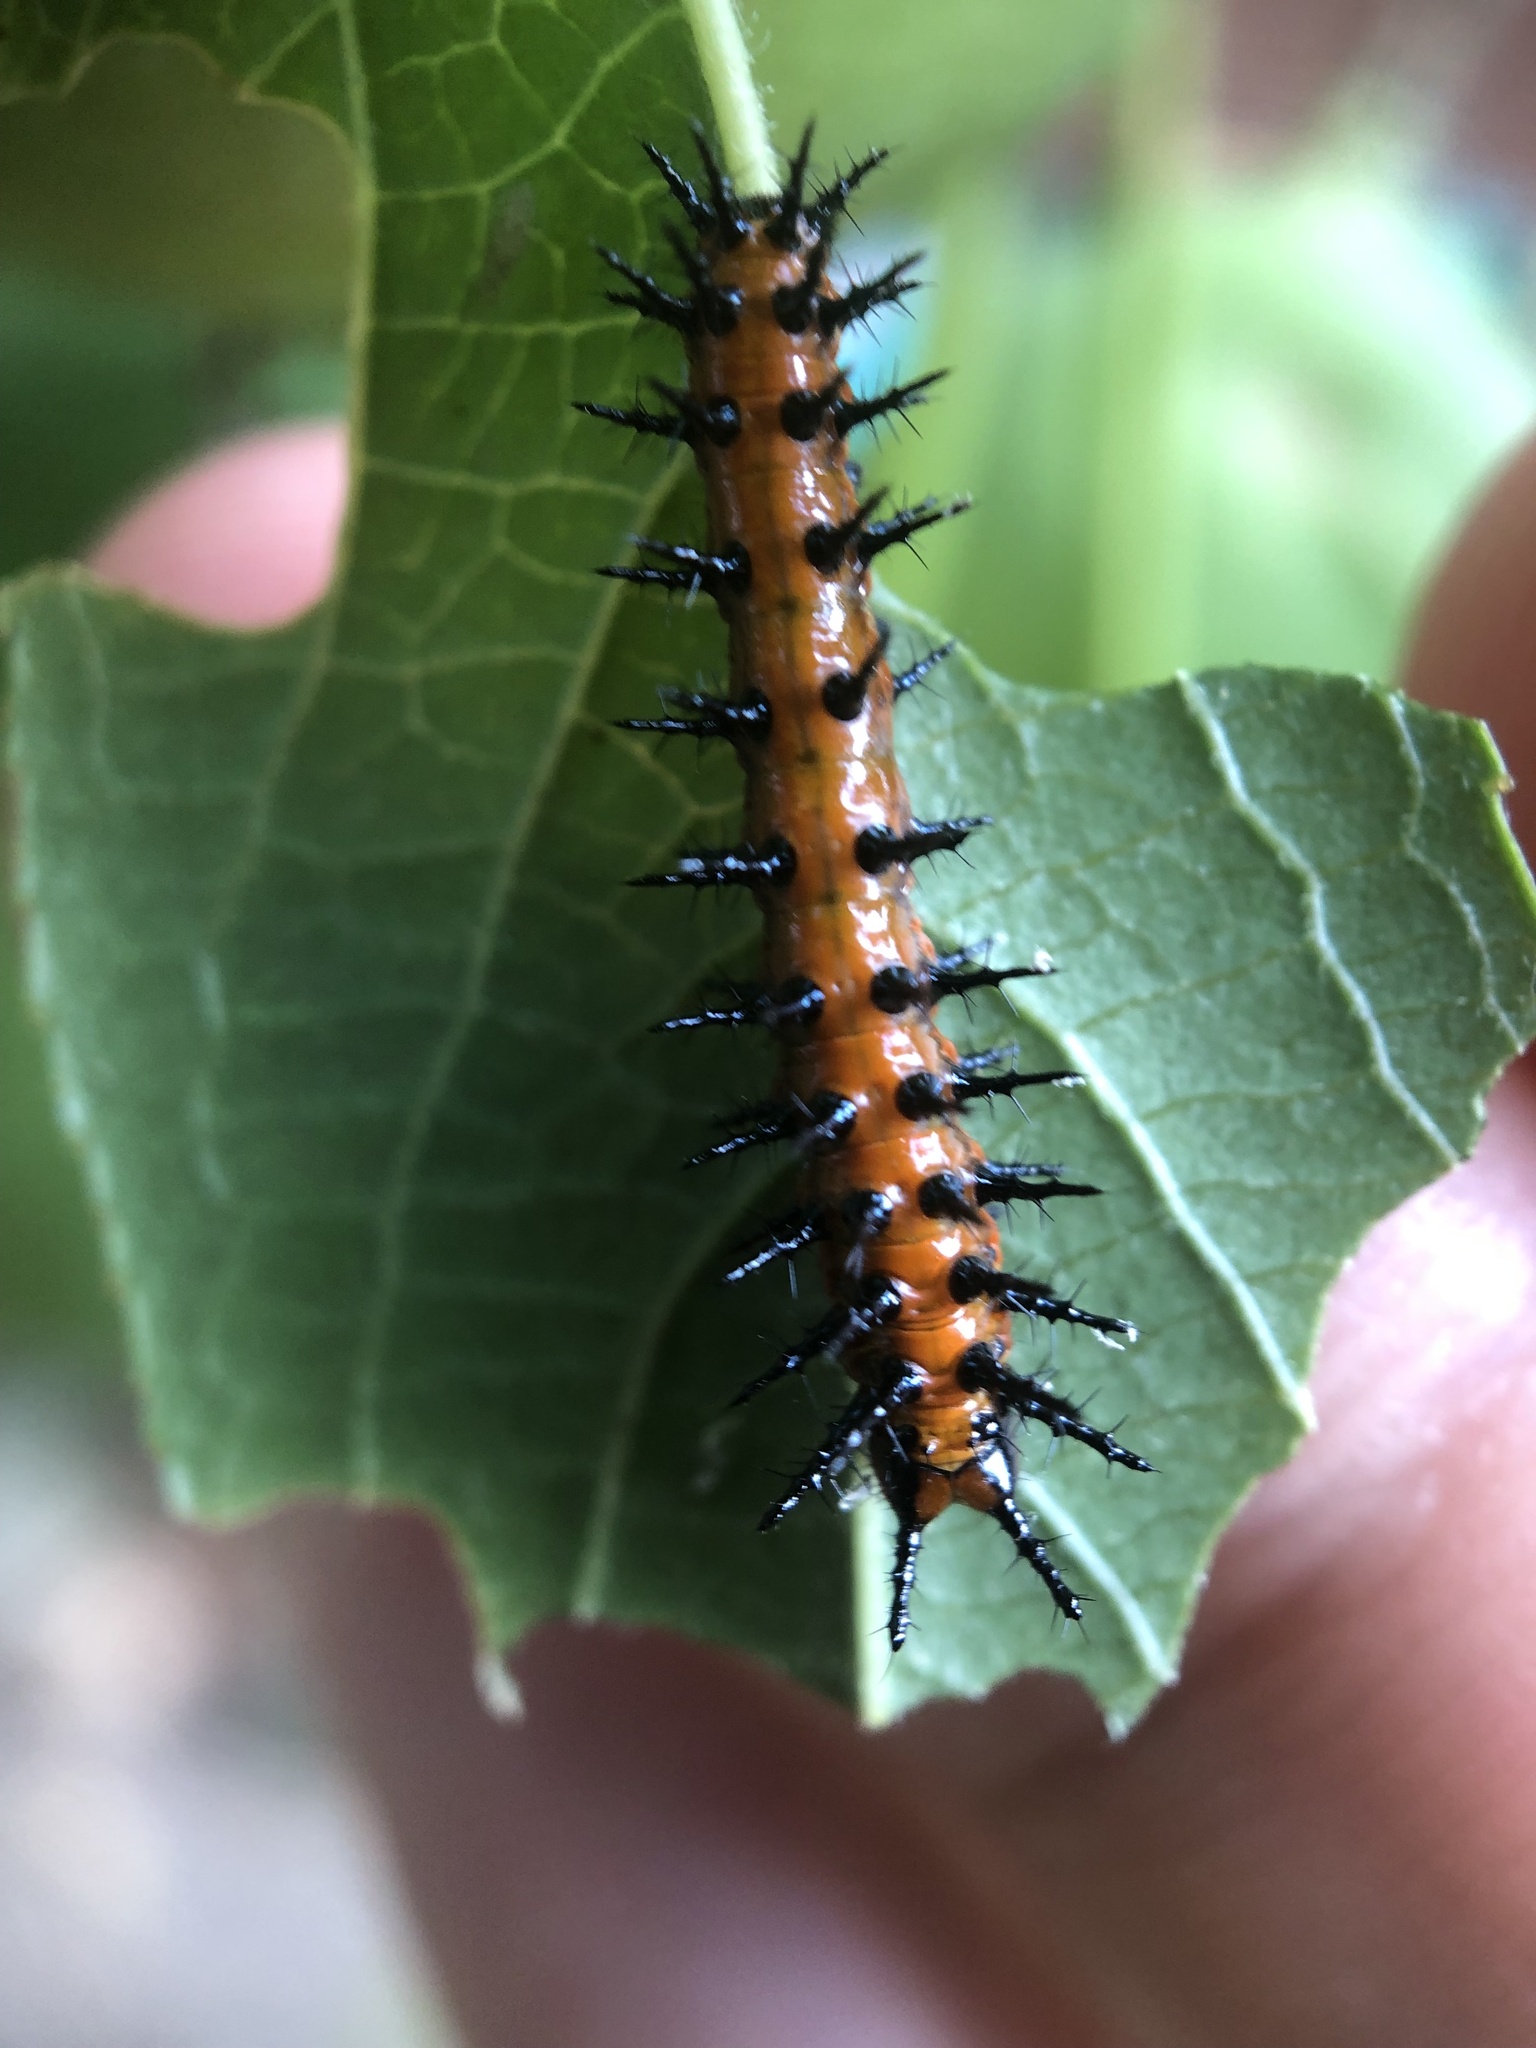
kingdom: Animalia
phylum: Arthropoda
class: Insecta
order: Lepidoptera
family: Nymphalidae
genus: Dione
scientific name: Dione vanillae
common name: Gulf fritillary
